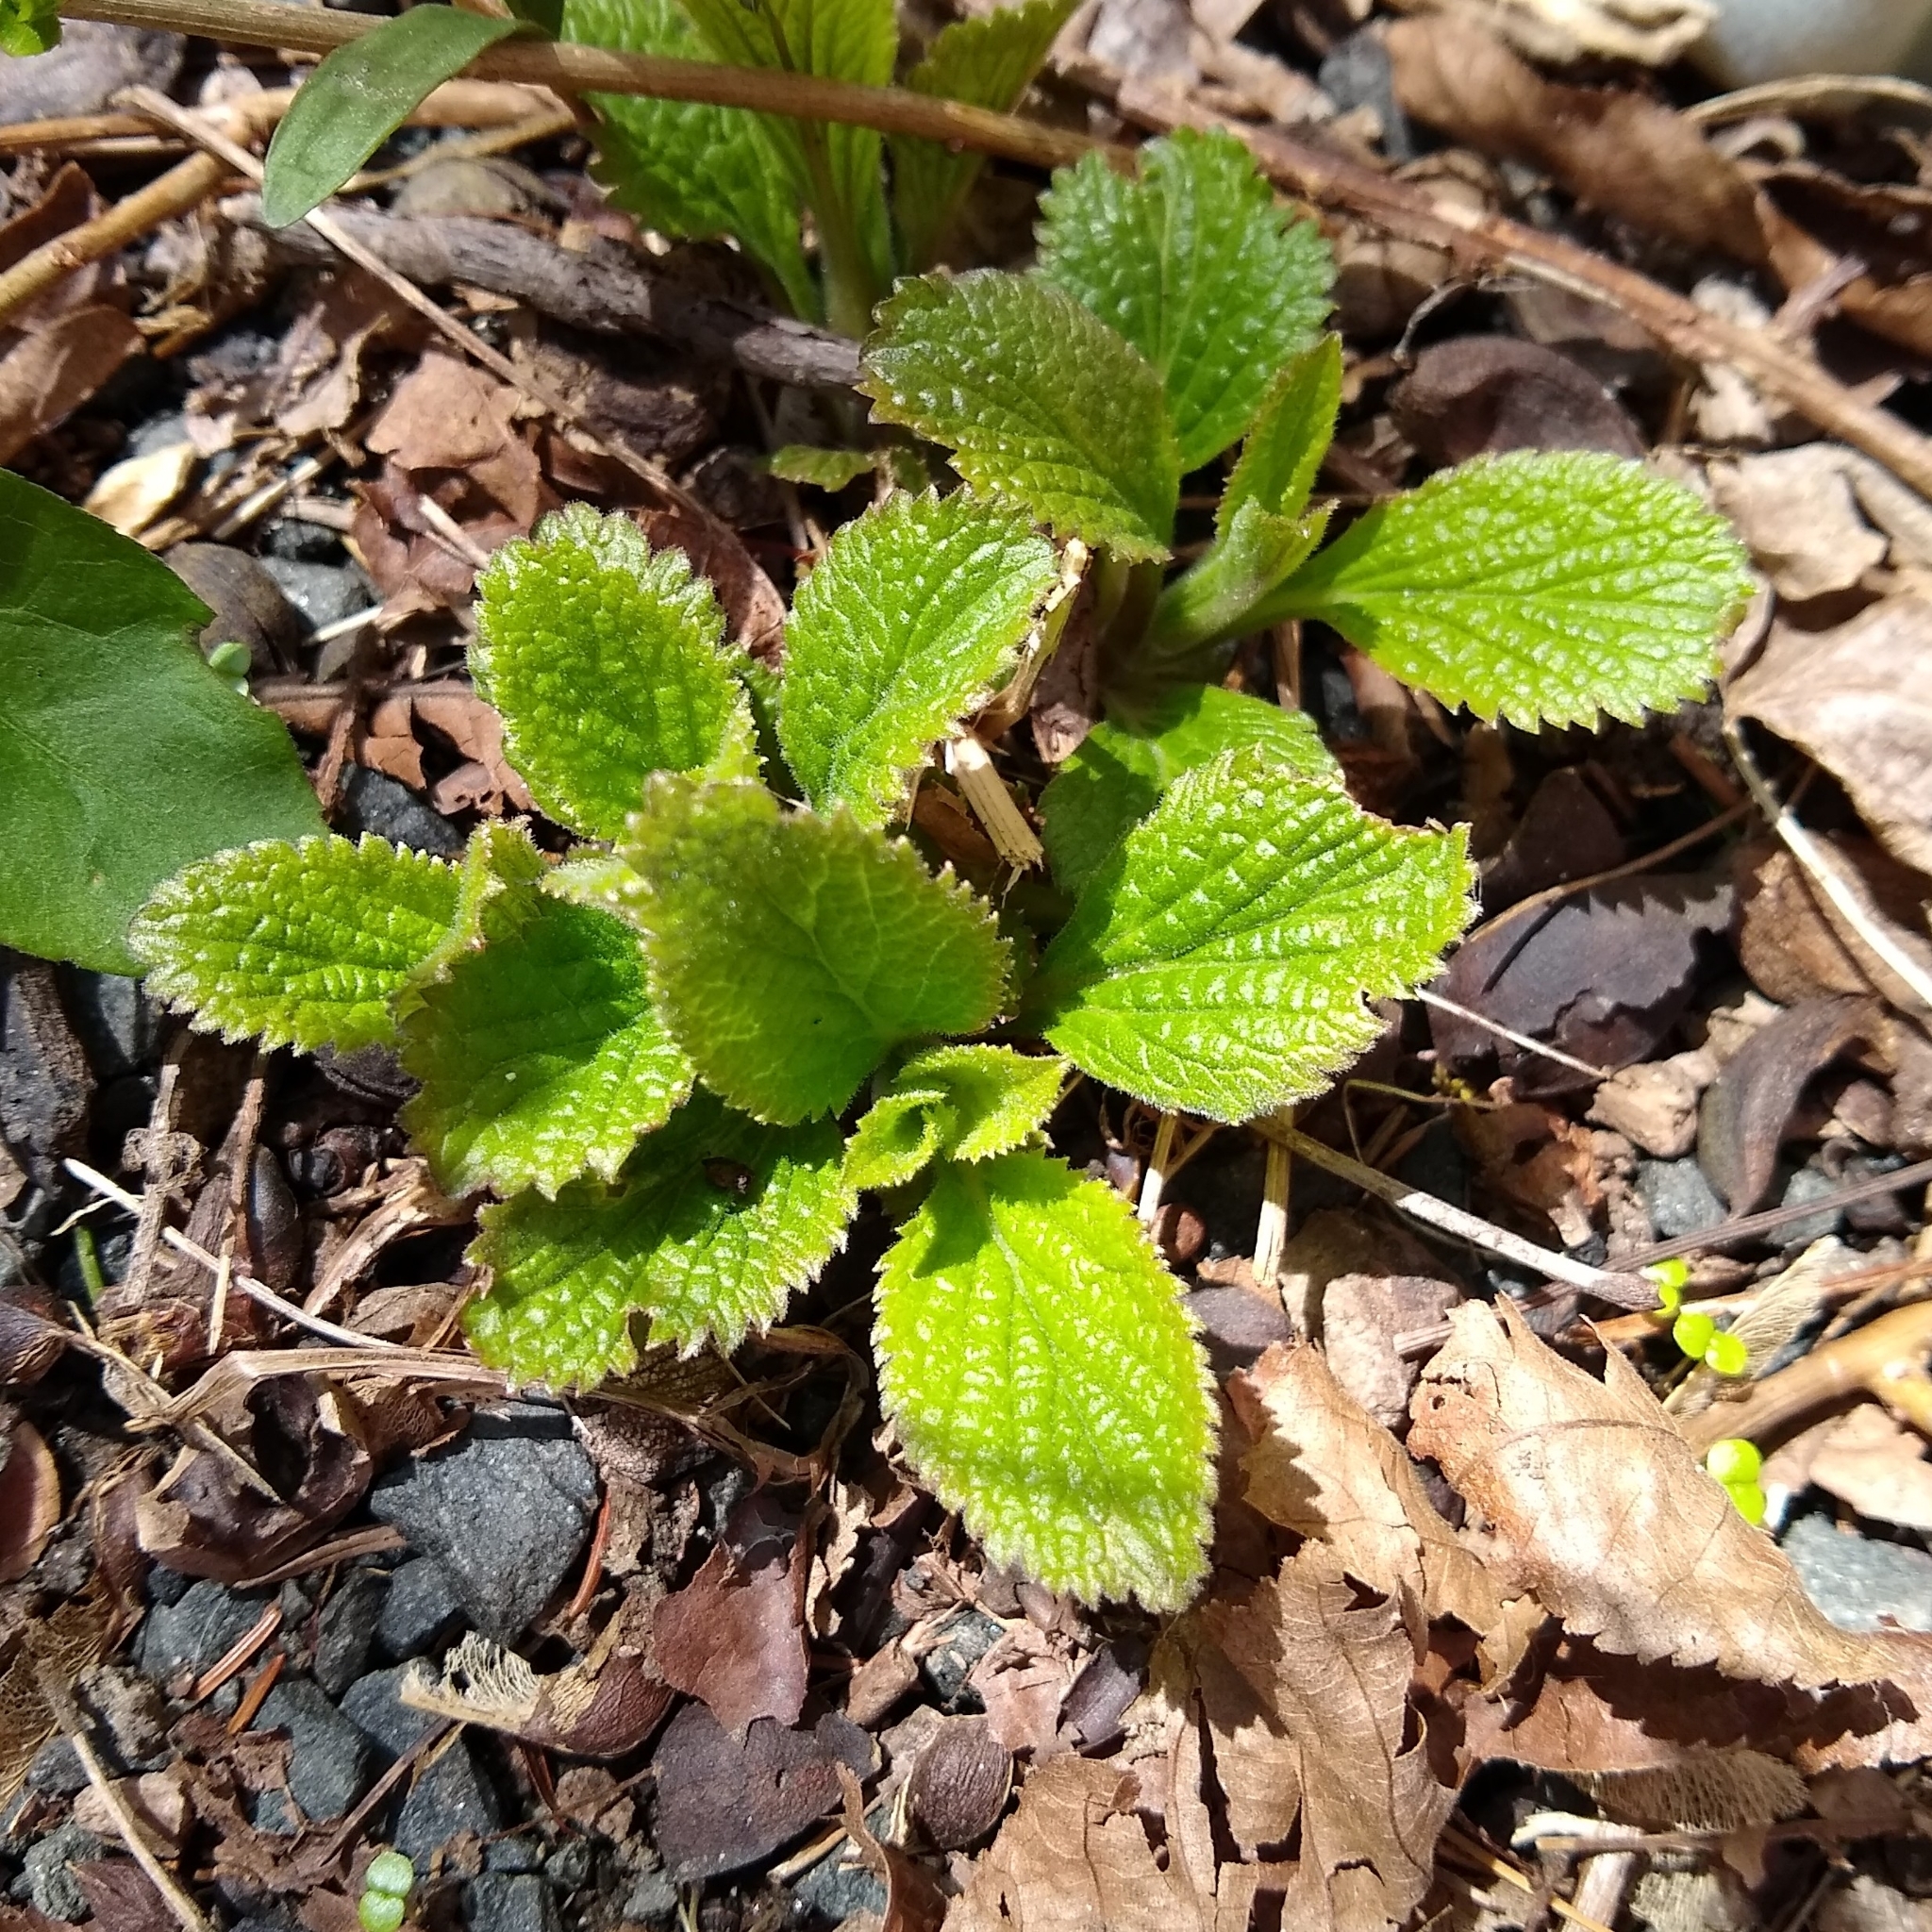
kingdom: Plantae
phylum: Tracheophyta
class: Magnoliopsida
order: Lamiales
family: Verbenaceae
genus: Verbena
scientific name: Verbena urticifolia
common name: Nettle-leaved vervain
